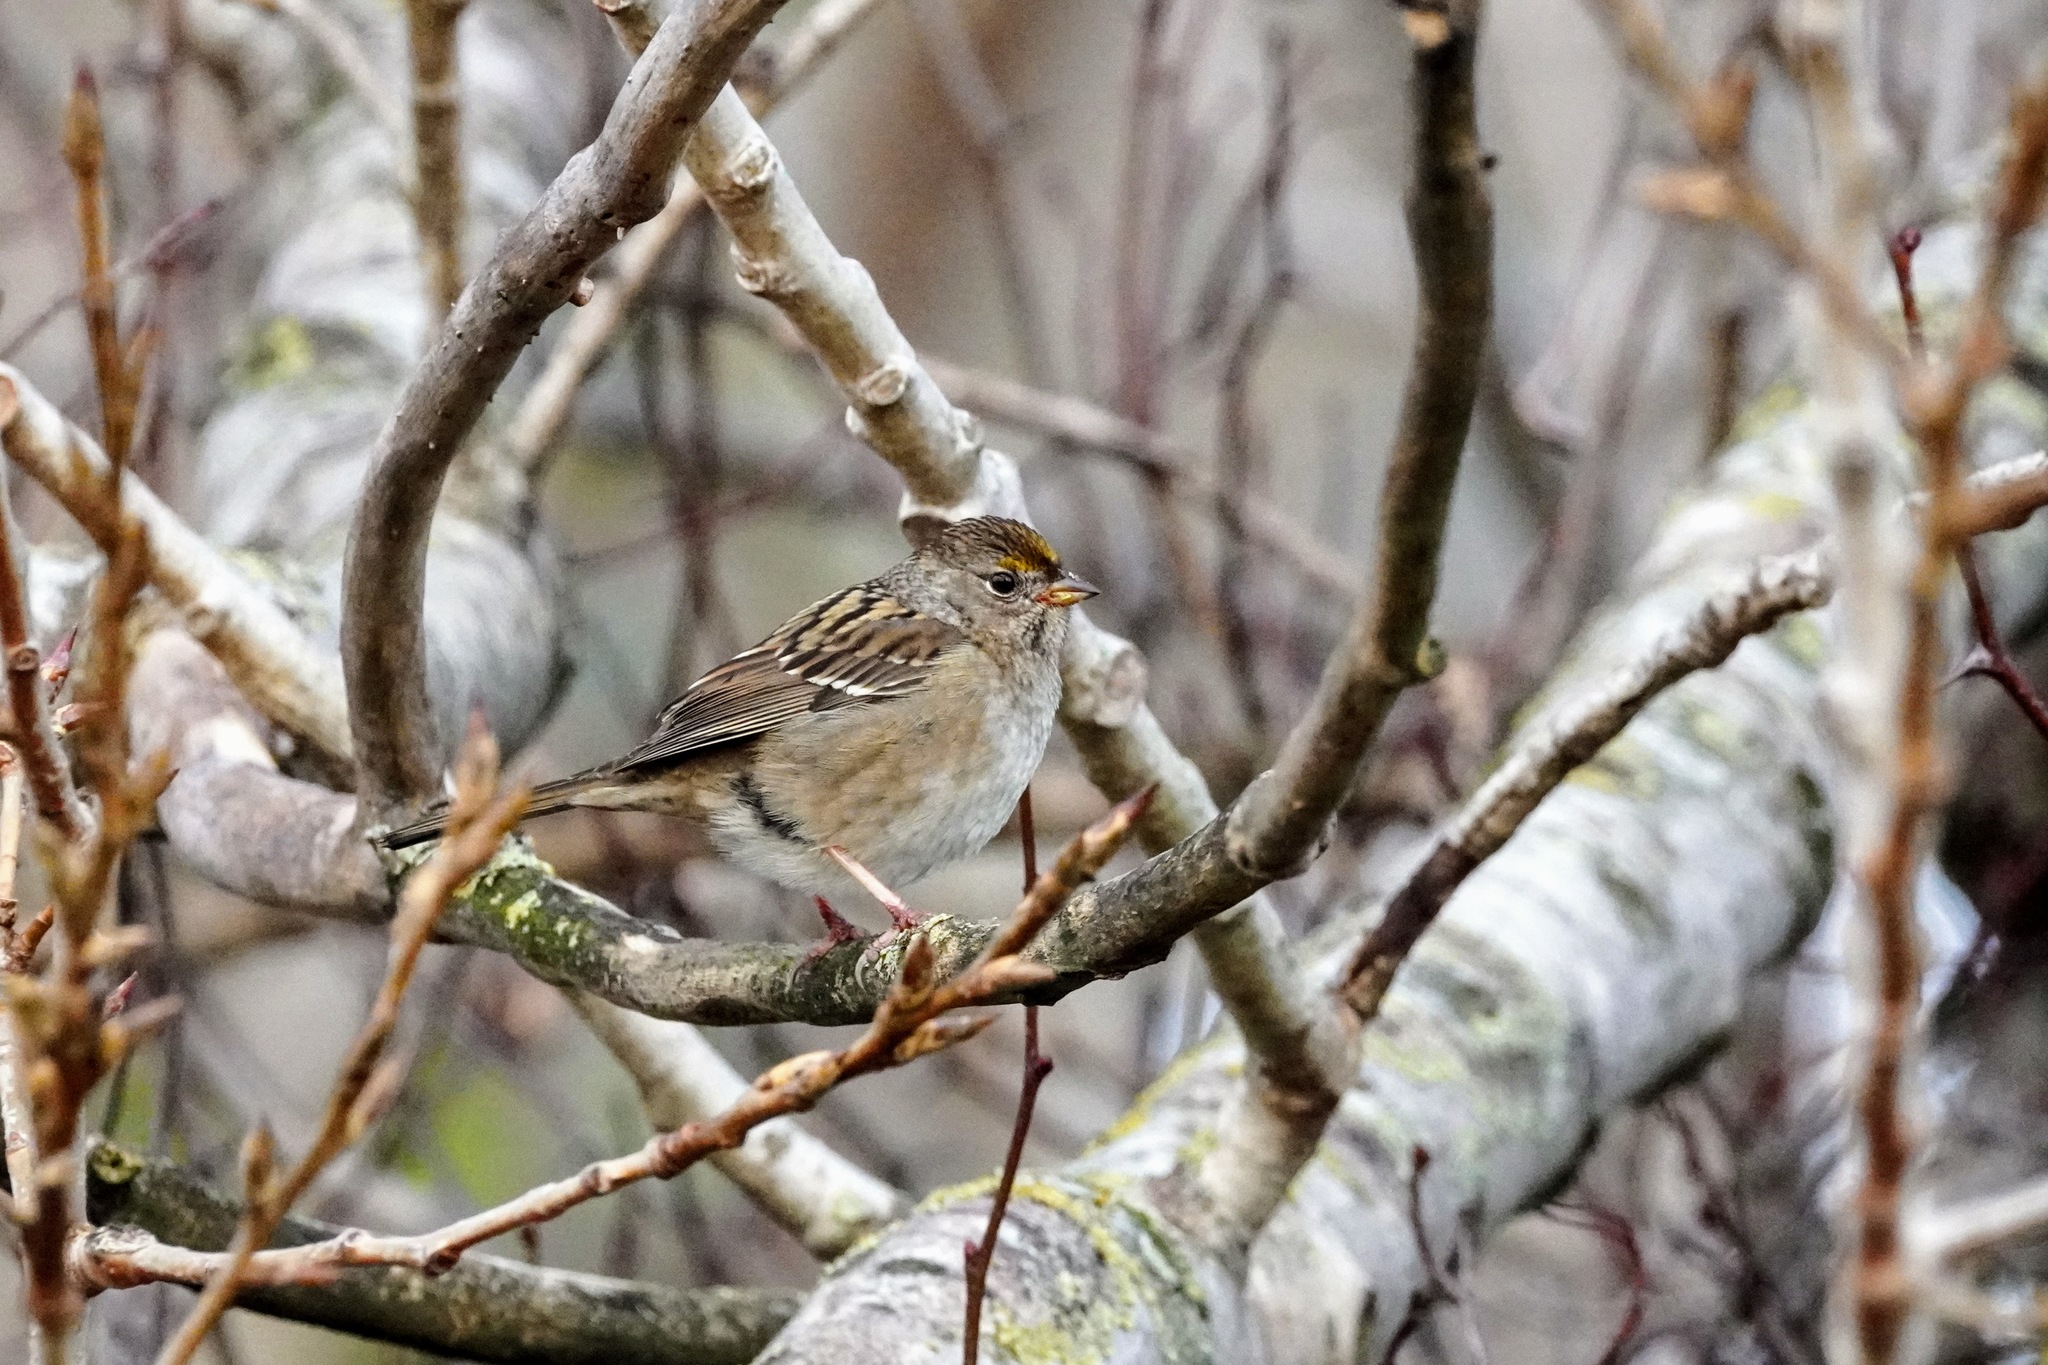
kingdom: Animalia
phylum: Chordata
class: Aves
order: Passeriformes
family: Passerellidae
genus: Zonotrichia
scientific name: Zonotrichia atricapilla
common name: Golden-crowned sparrow
